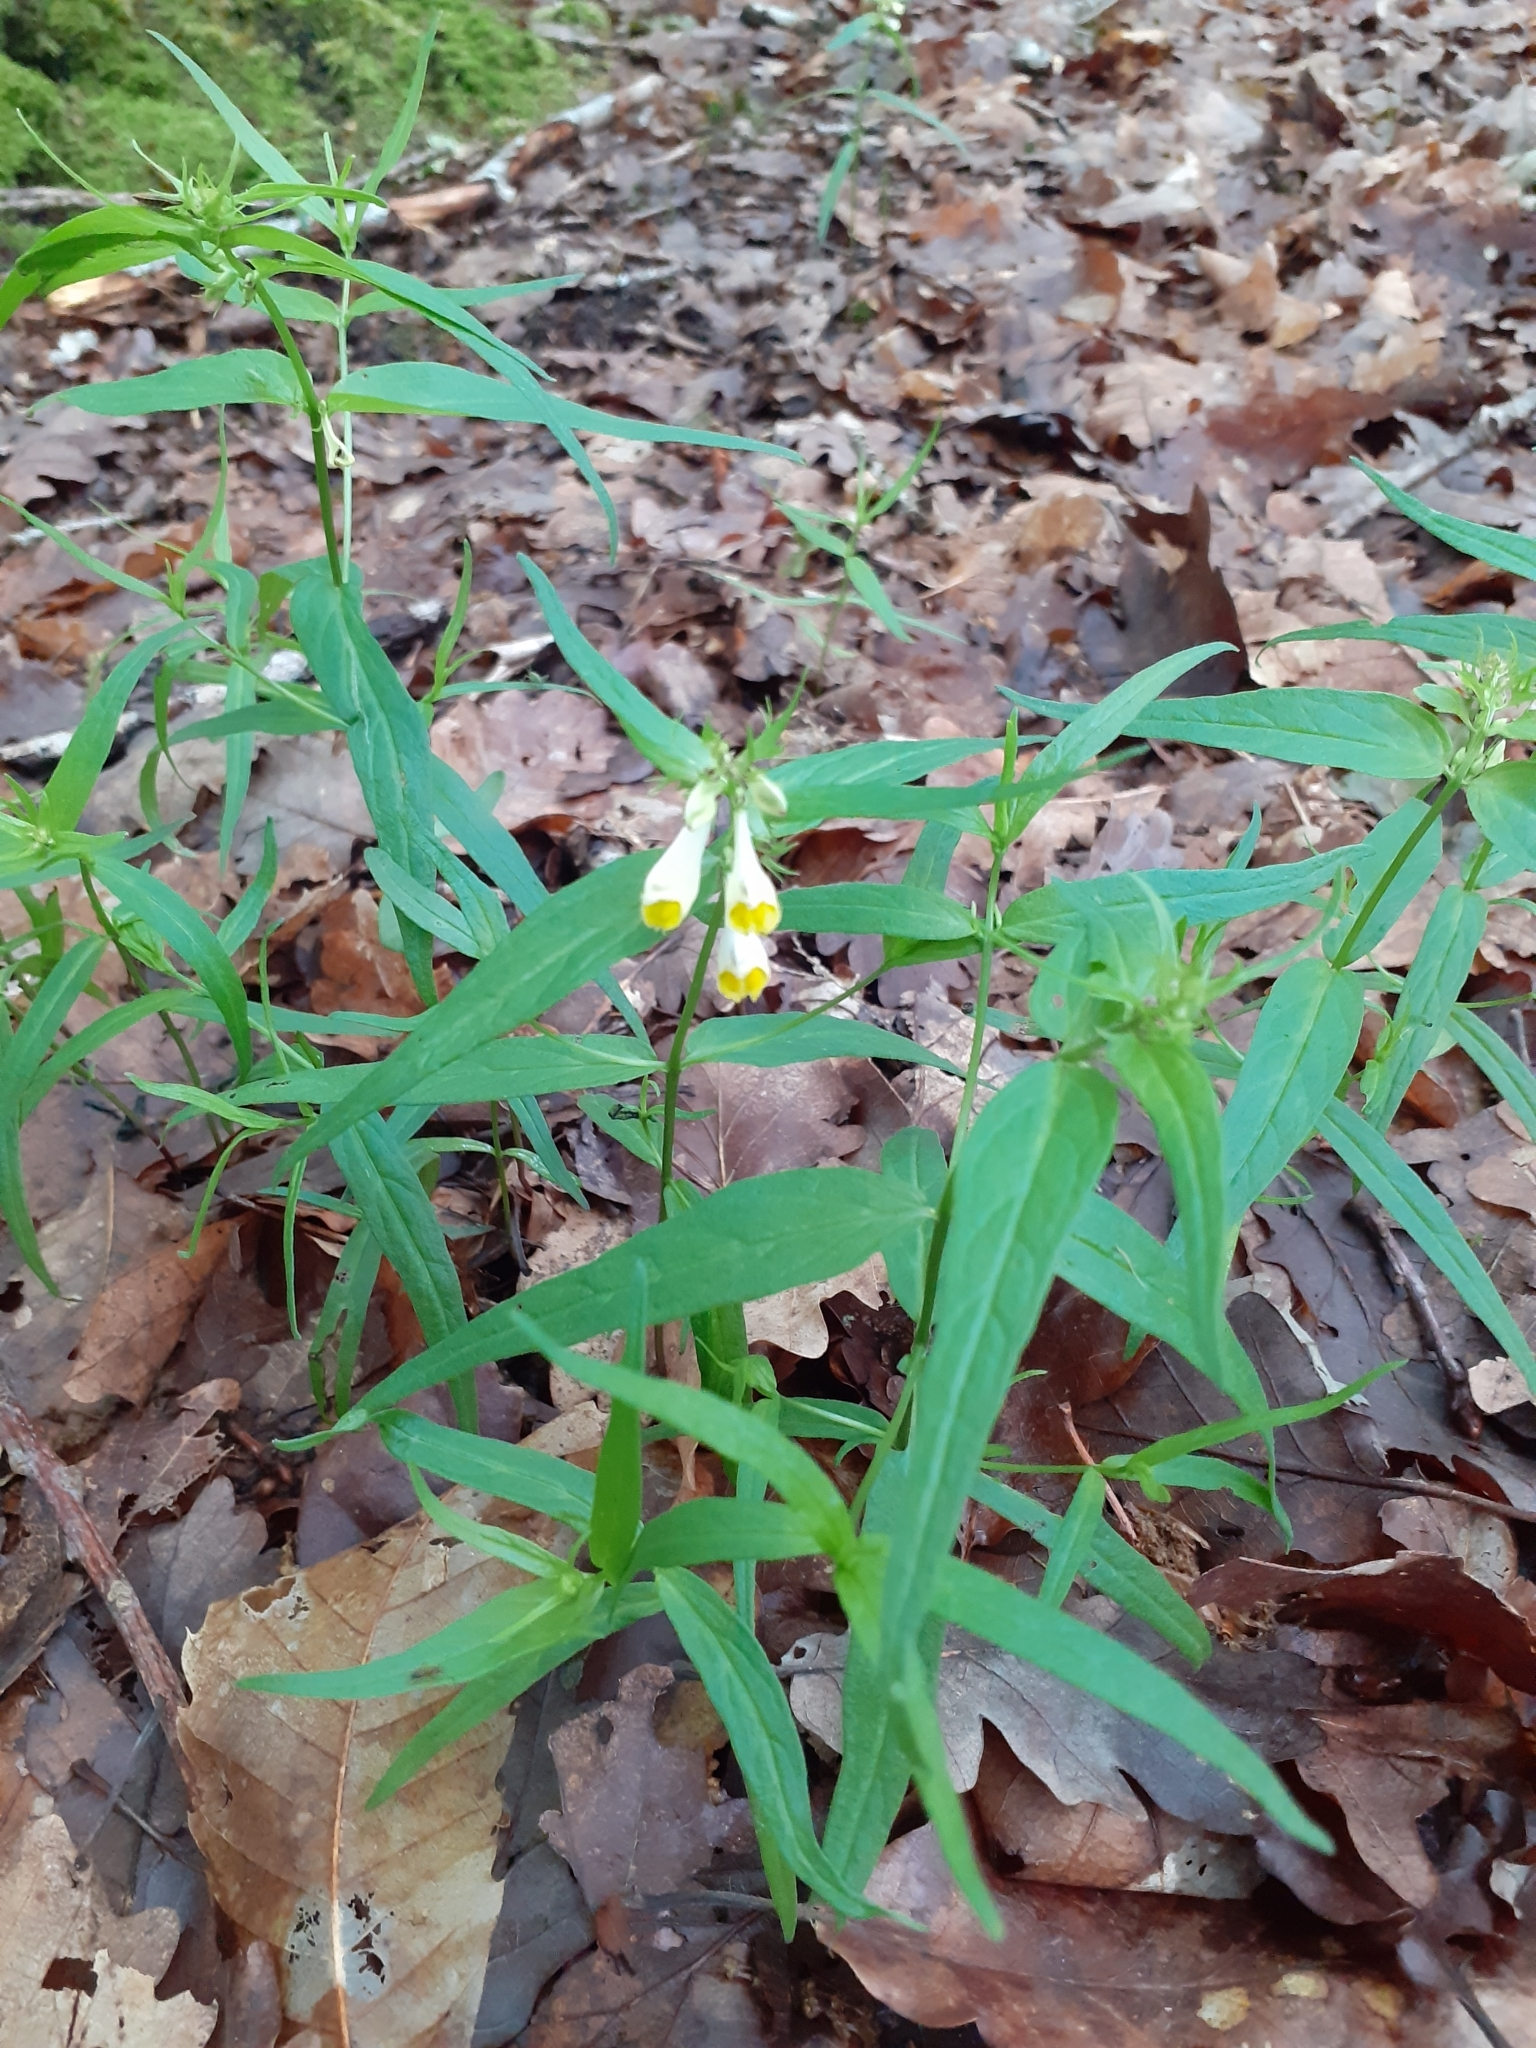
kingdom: Plantae
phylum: Tracheophyta
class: Magnoliopsida
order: Lamiales
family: Orobanchaceae
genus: Melampyrum
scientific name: Melampyrum pratense
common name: Common cow-wheat
